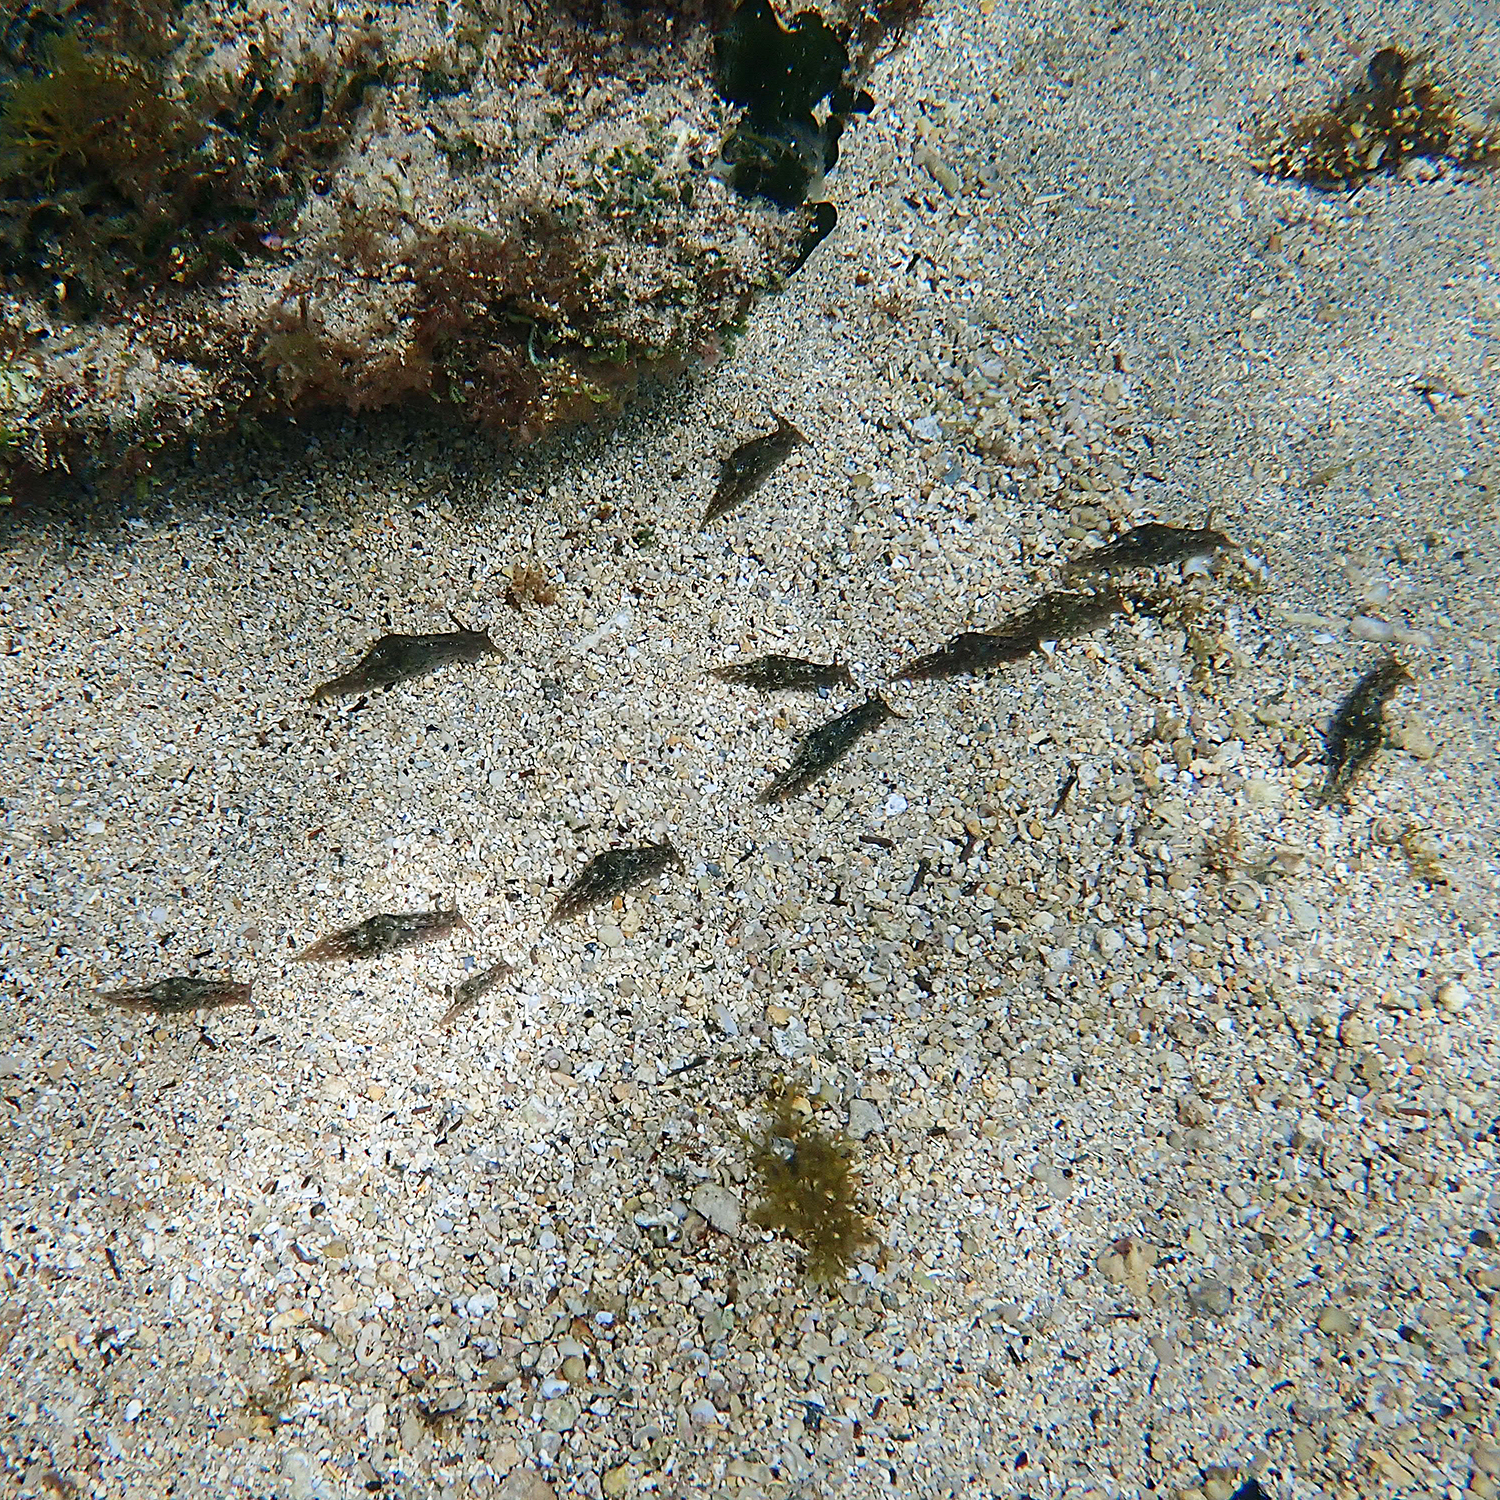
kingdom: Animalia
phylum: Mollusca
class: Gastropoda
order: Aplysiida
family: Aplysiidae
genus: Stylocheilus
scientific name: Stylocheilus striatus
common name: Striated seahare
